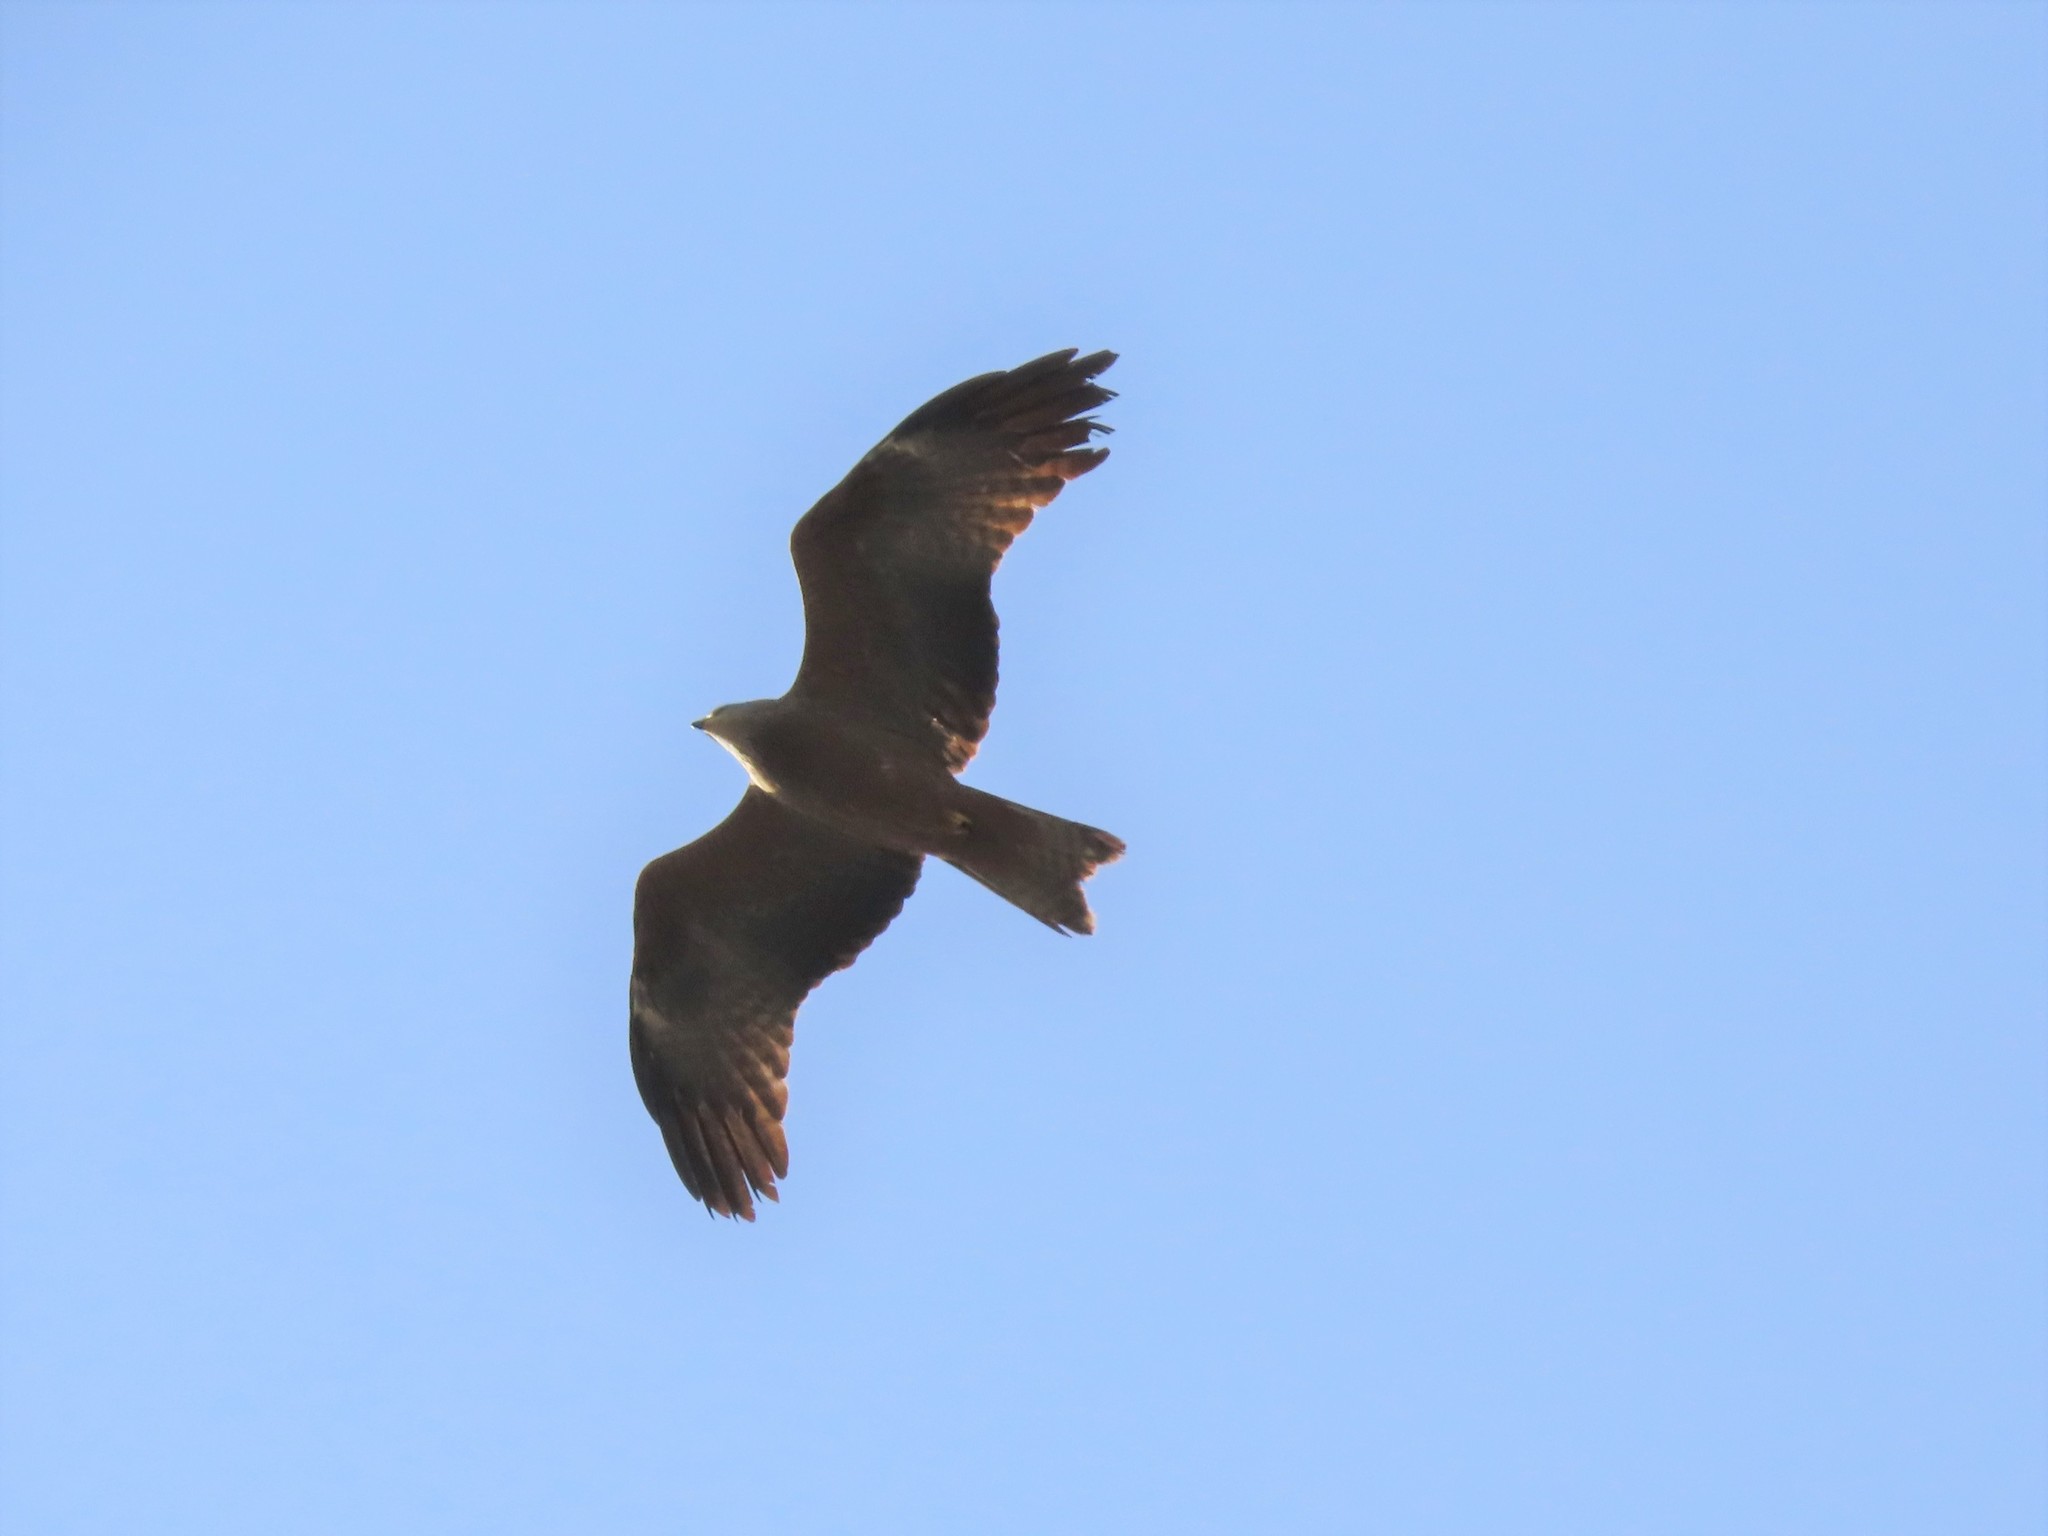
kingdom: Animalia
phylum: Chordata
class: Aves
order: Accipitriformes
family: Accipitridae
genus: Milvus
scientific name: Milvus migrans
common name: Black kite
